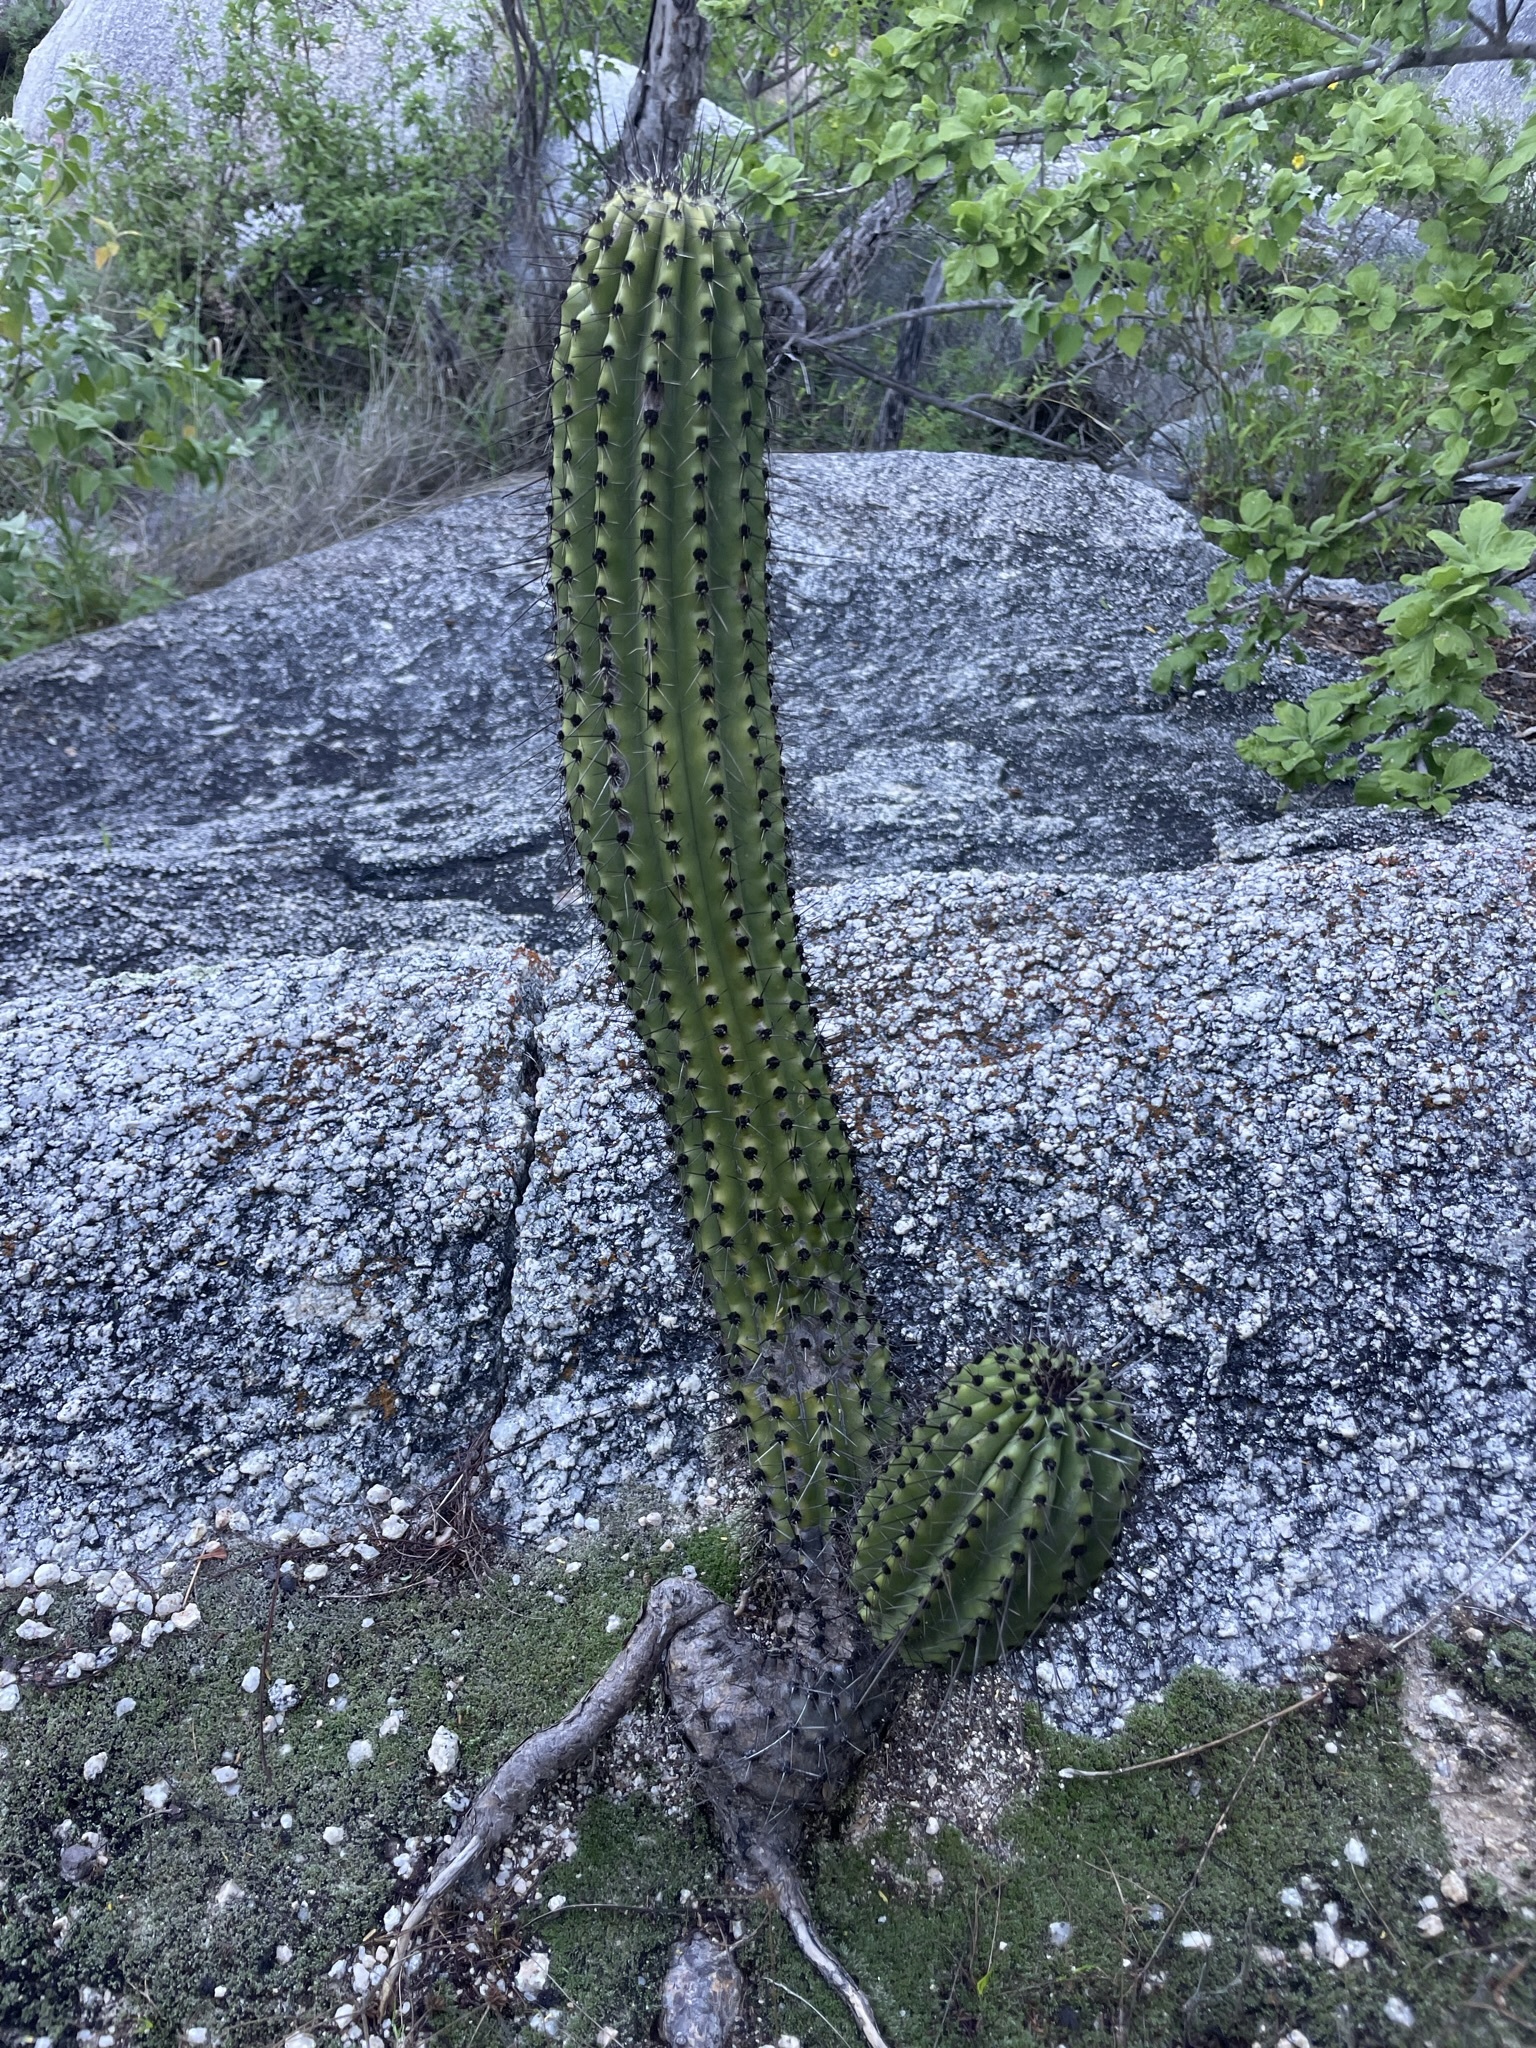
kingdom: Plantae
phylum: Tracheophyta
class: Magnoliopsida
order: Caryophyllales
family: Cactaceae
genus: Stenocereus
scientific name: Stenocereus thurberi
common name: Organ pipe cactus
